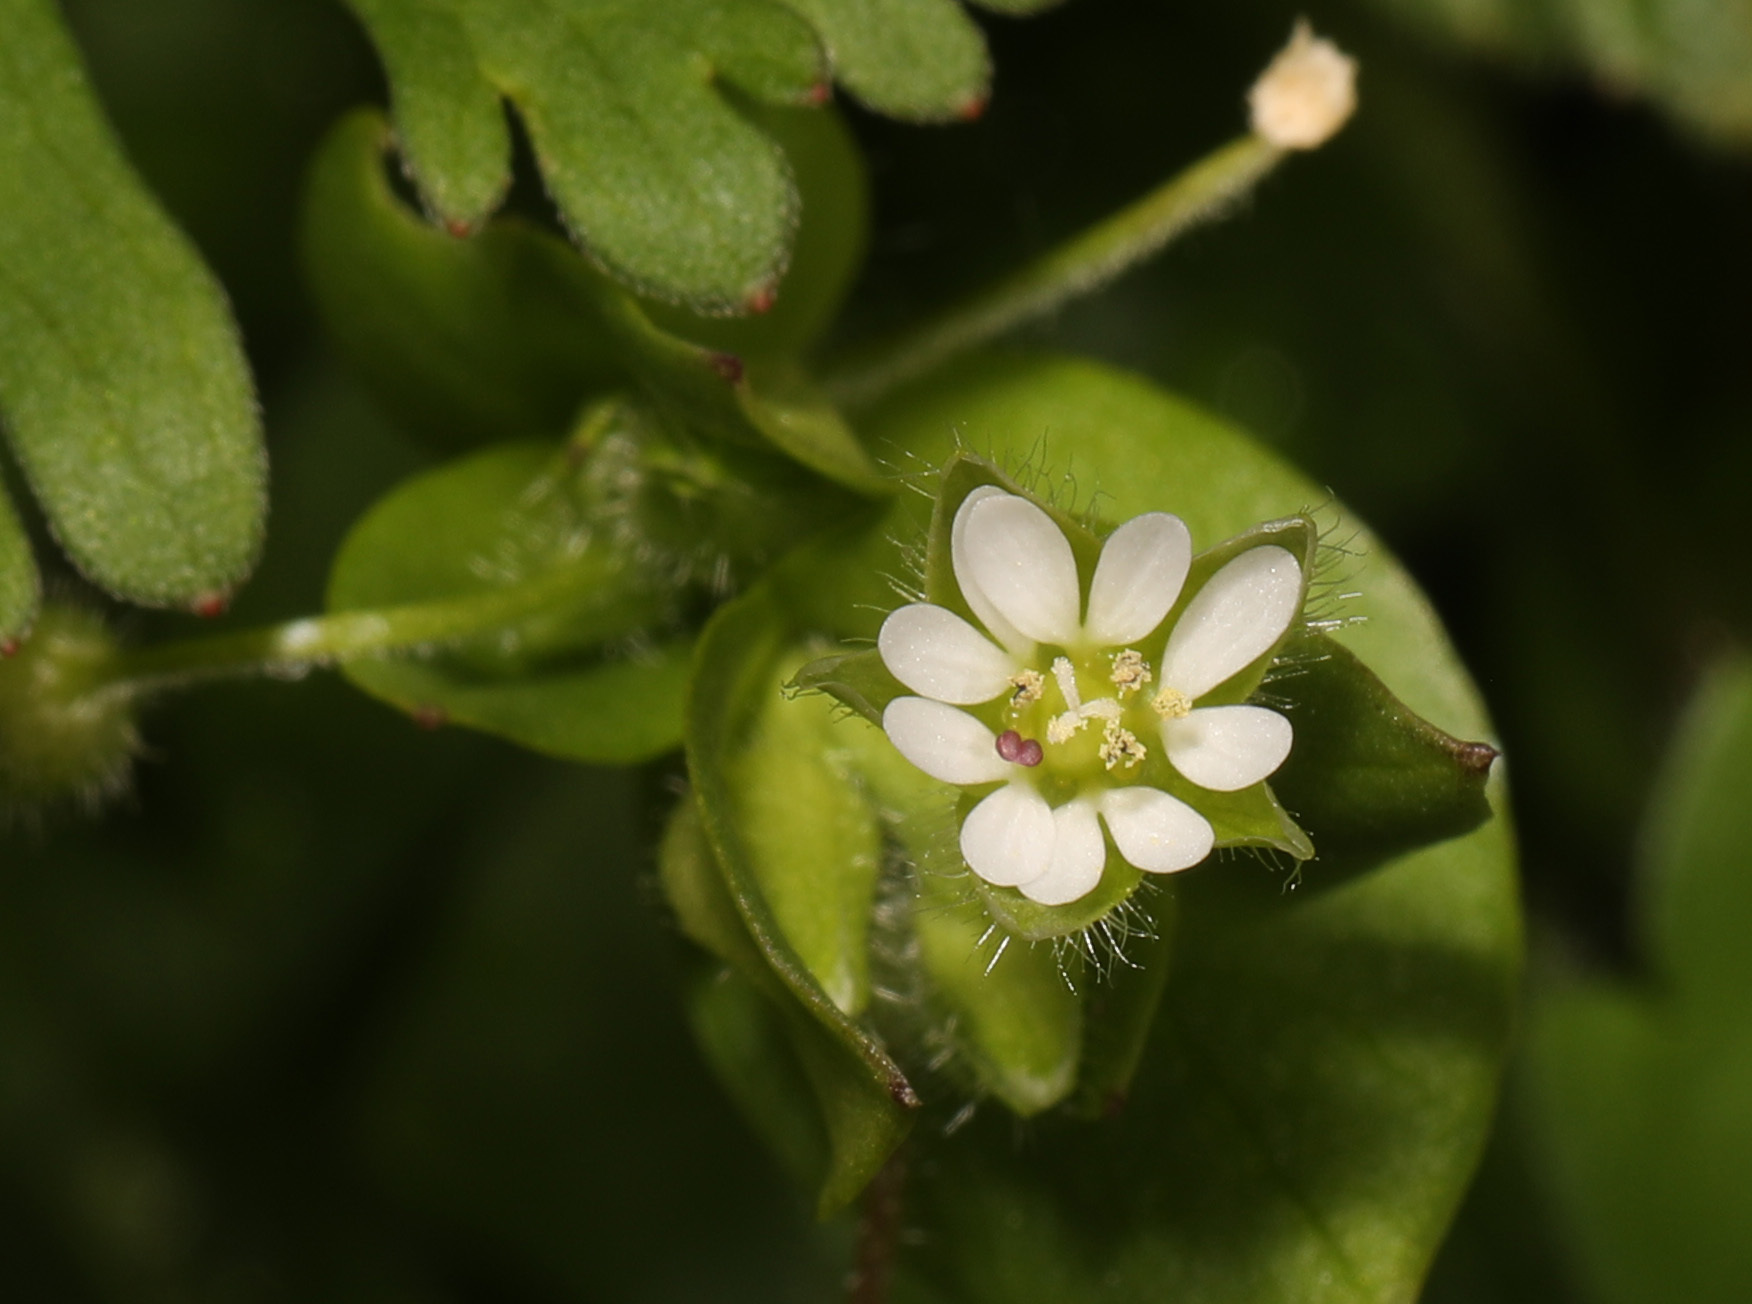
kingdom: Plantae
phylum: Tracheophyta
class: Magnoliopsida
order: Caryophyllales
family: Caryophyllaceae
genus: Stellaria
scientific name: Stellaria media
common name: Common chickweed
